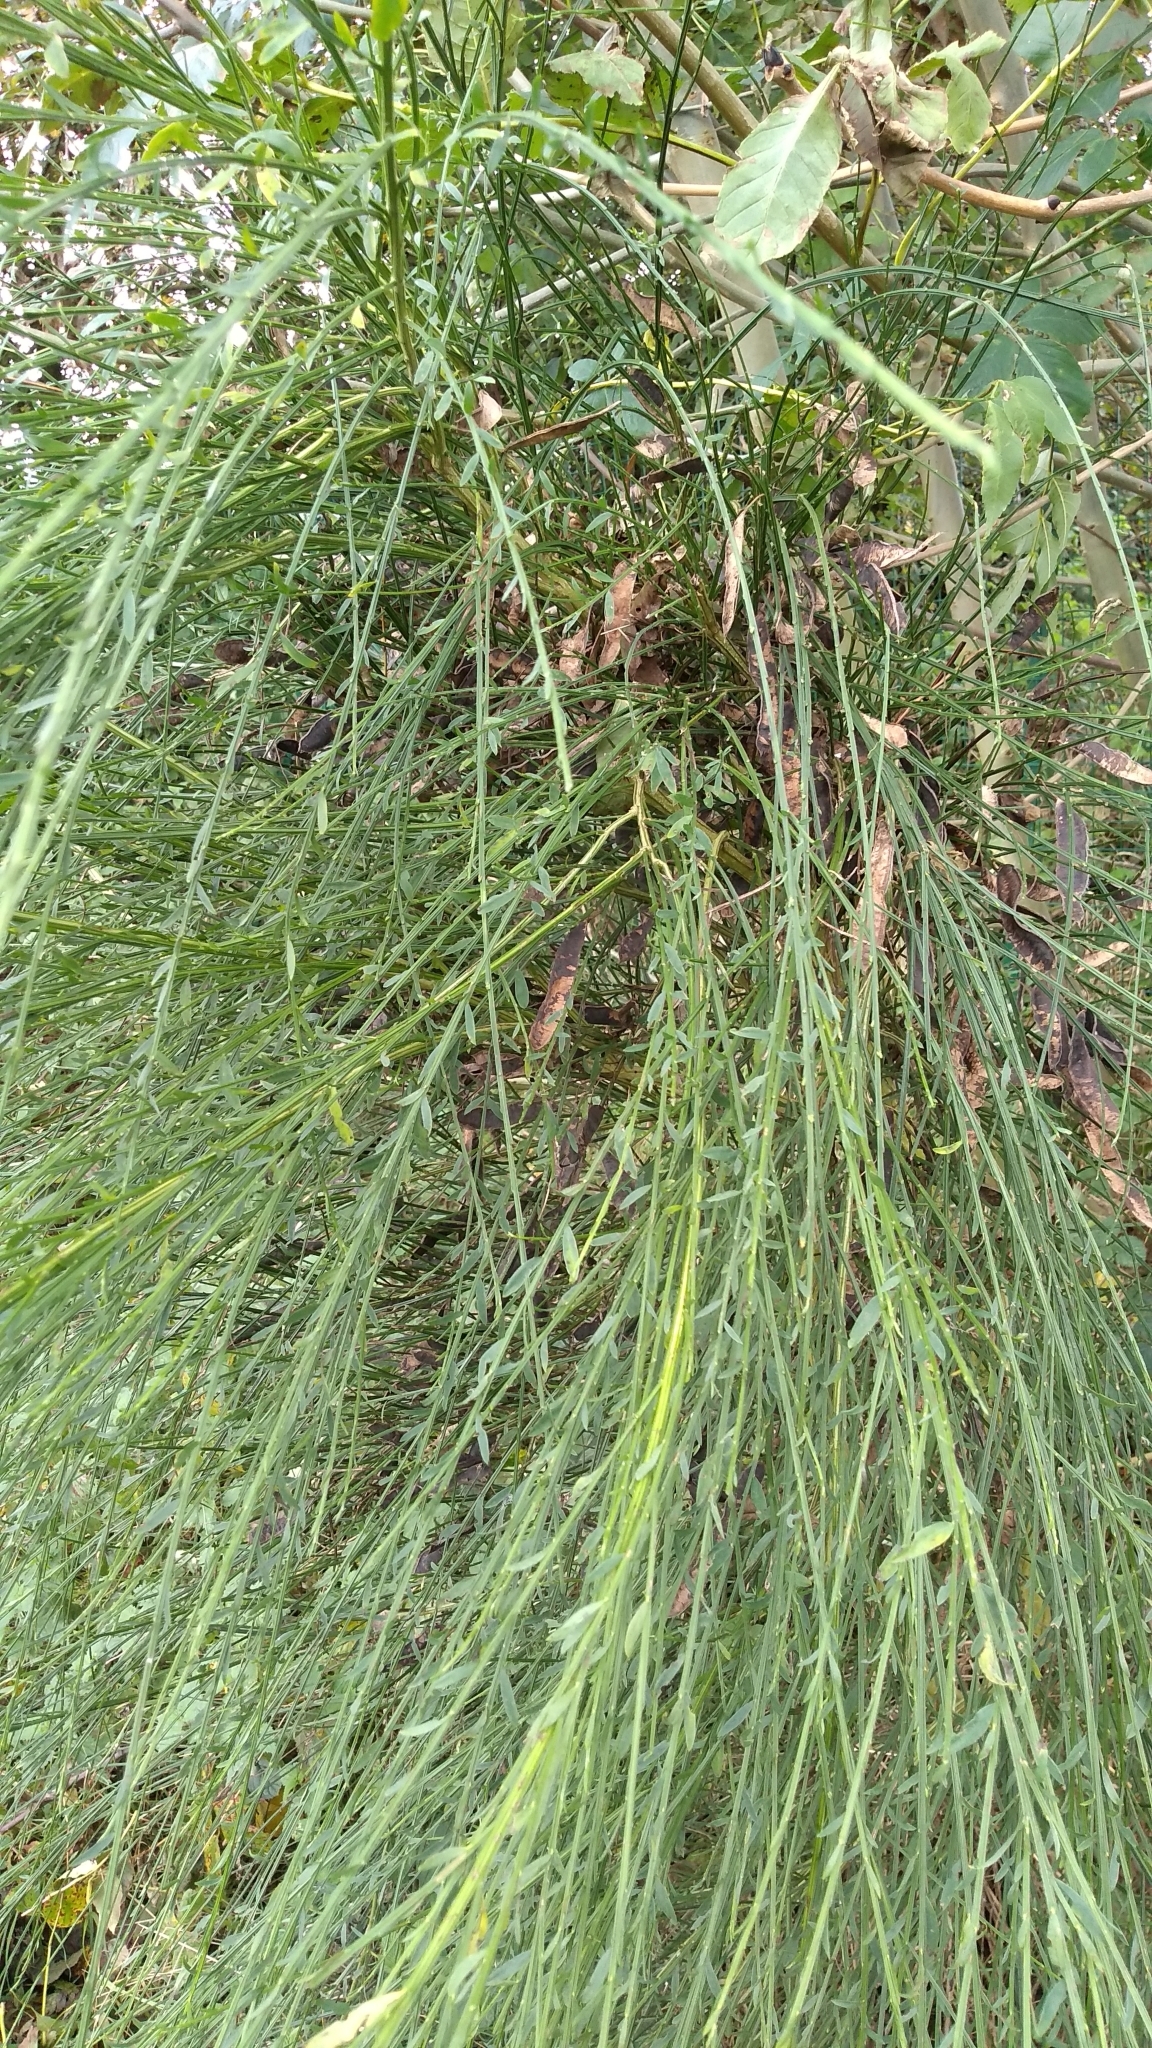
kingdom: Plantae
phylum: Tracheophyta
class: Magnoliopsida
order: Fabales
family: Fabaceae
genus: Cytisus
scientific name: Cytisus scoparius
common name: Scotch broom
